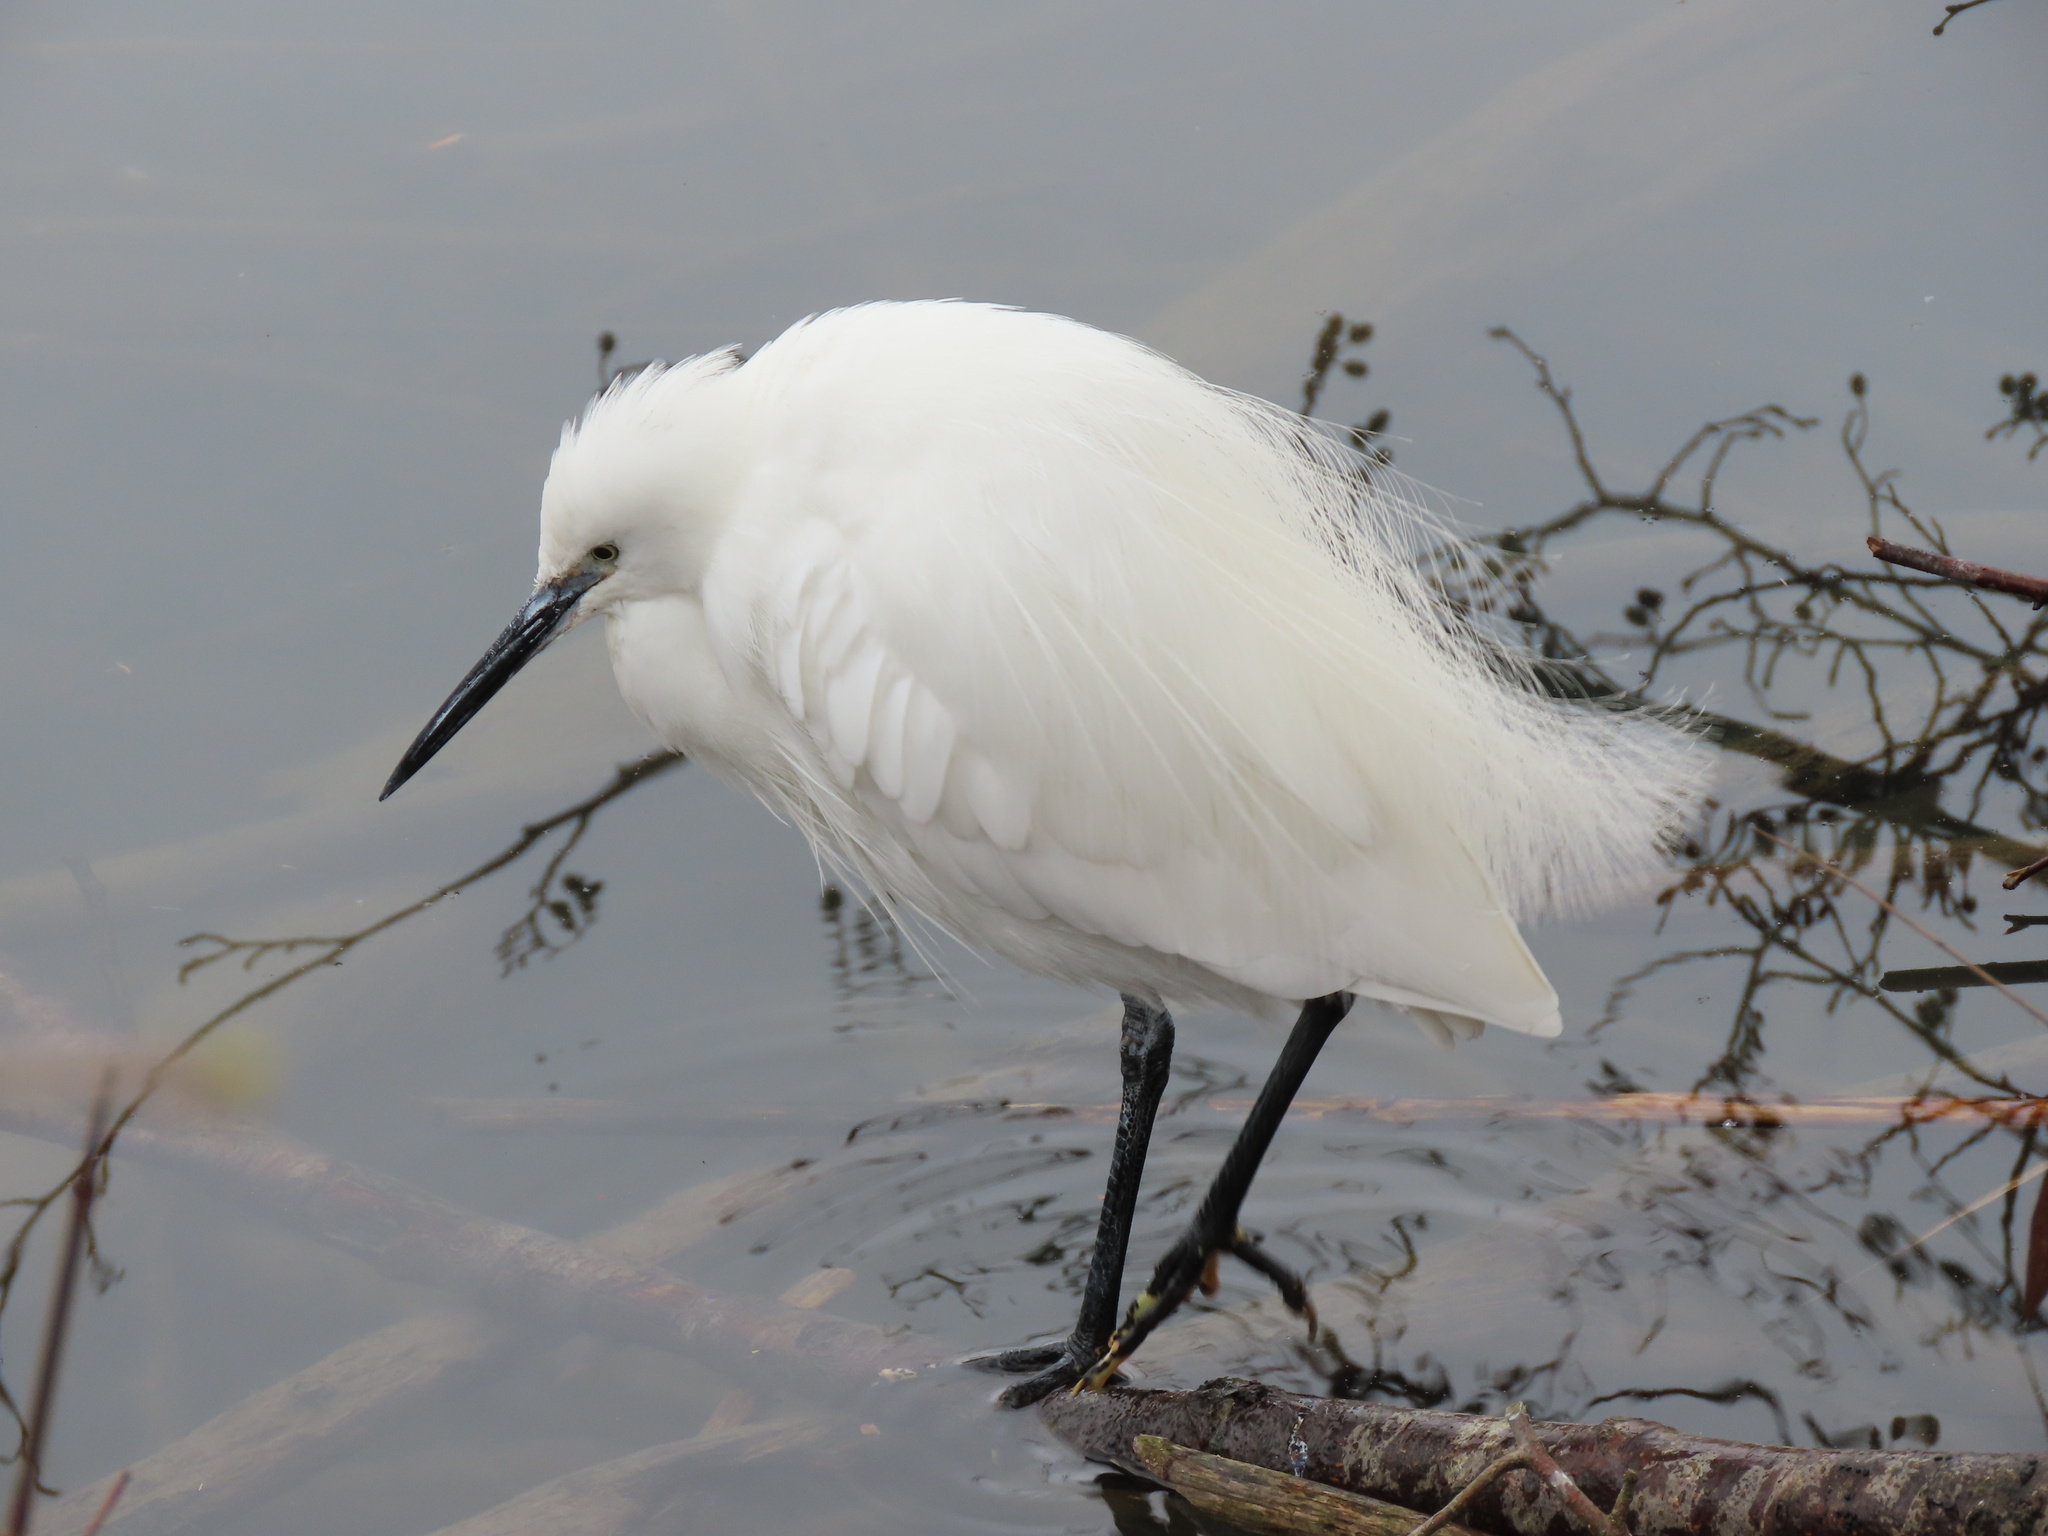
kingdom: Animalia
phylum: Chordata
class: Aves
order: Pelecaniformes
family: Ardeidae
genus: Egretta
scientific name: Egretta garzetta
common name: Little egret
